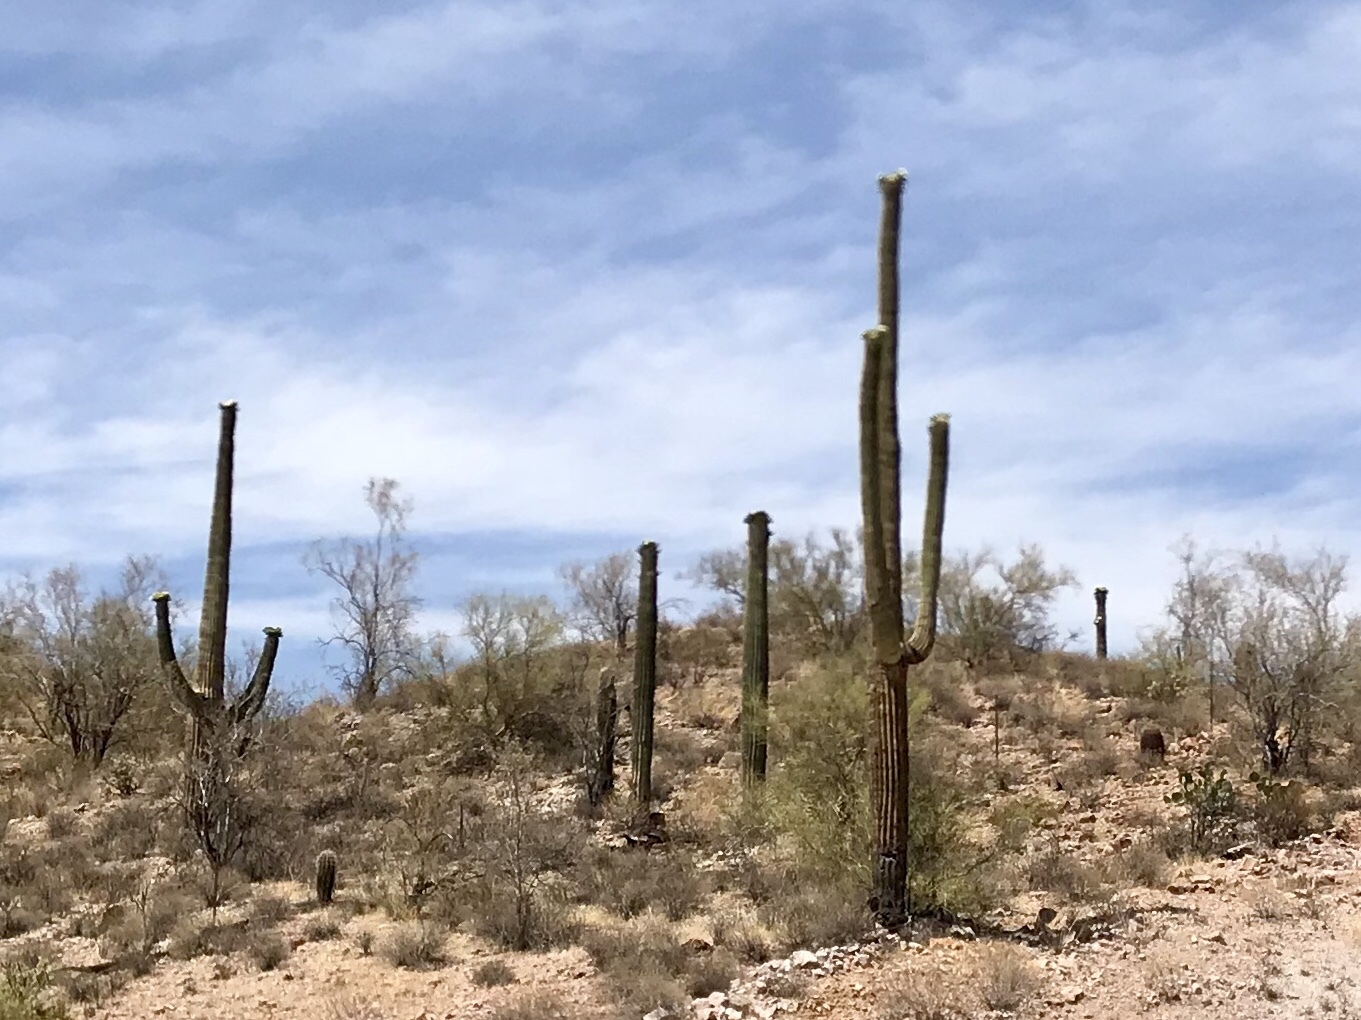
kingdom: Plantae
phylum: Tracheophyta
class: Magnoliopsida
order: Caryophyllales
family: Cactaceae
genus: Carnegiea
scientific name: Carnegiea gigantea
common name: Saguaro
